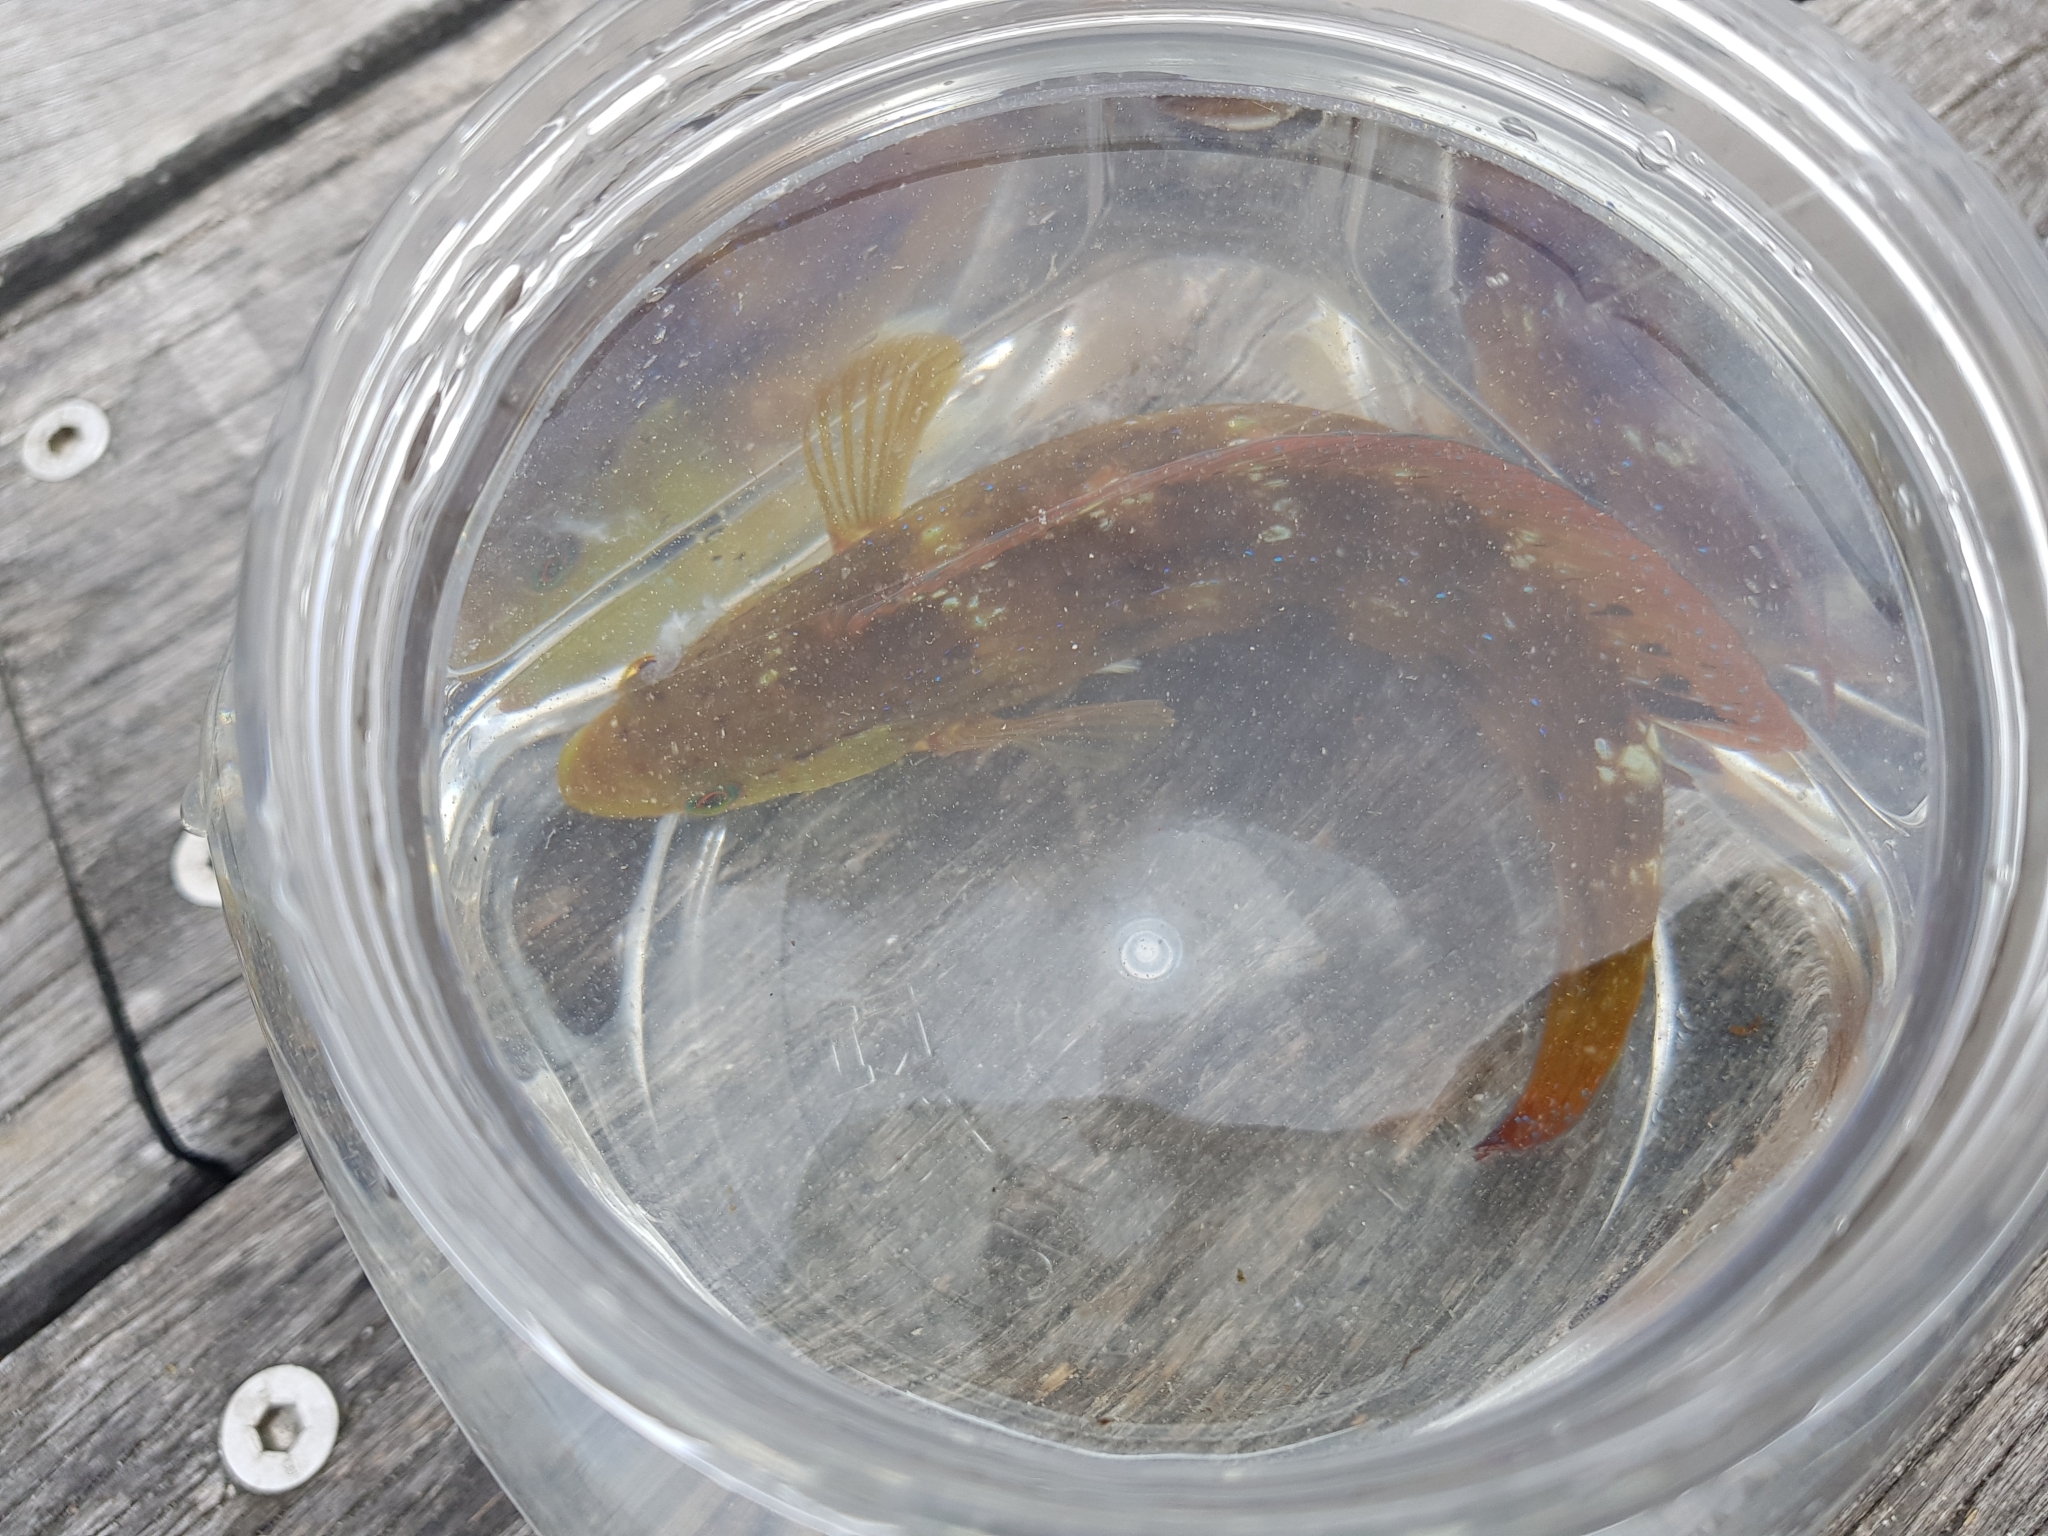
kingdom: Animalia
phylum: Chordata
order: Perciformes
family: Labridae
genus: Pictilabrus
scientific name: Pictilabrus laticlavius
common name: Patrician wrasse
